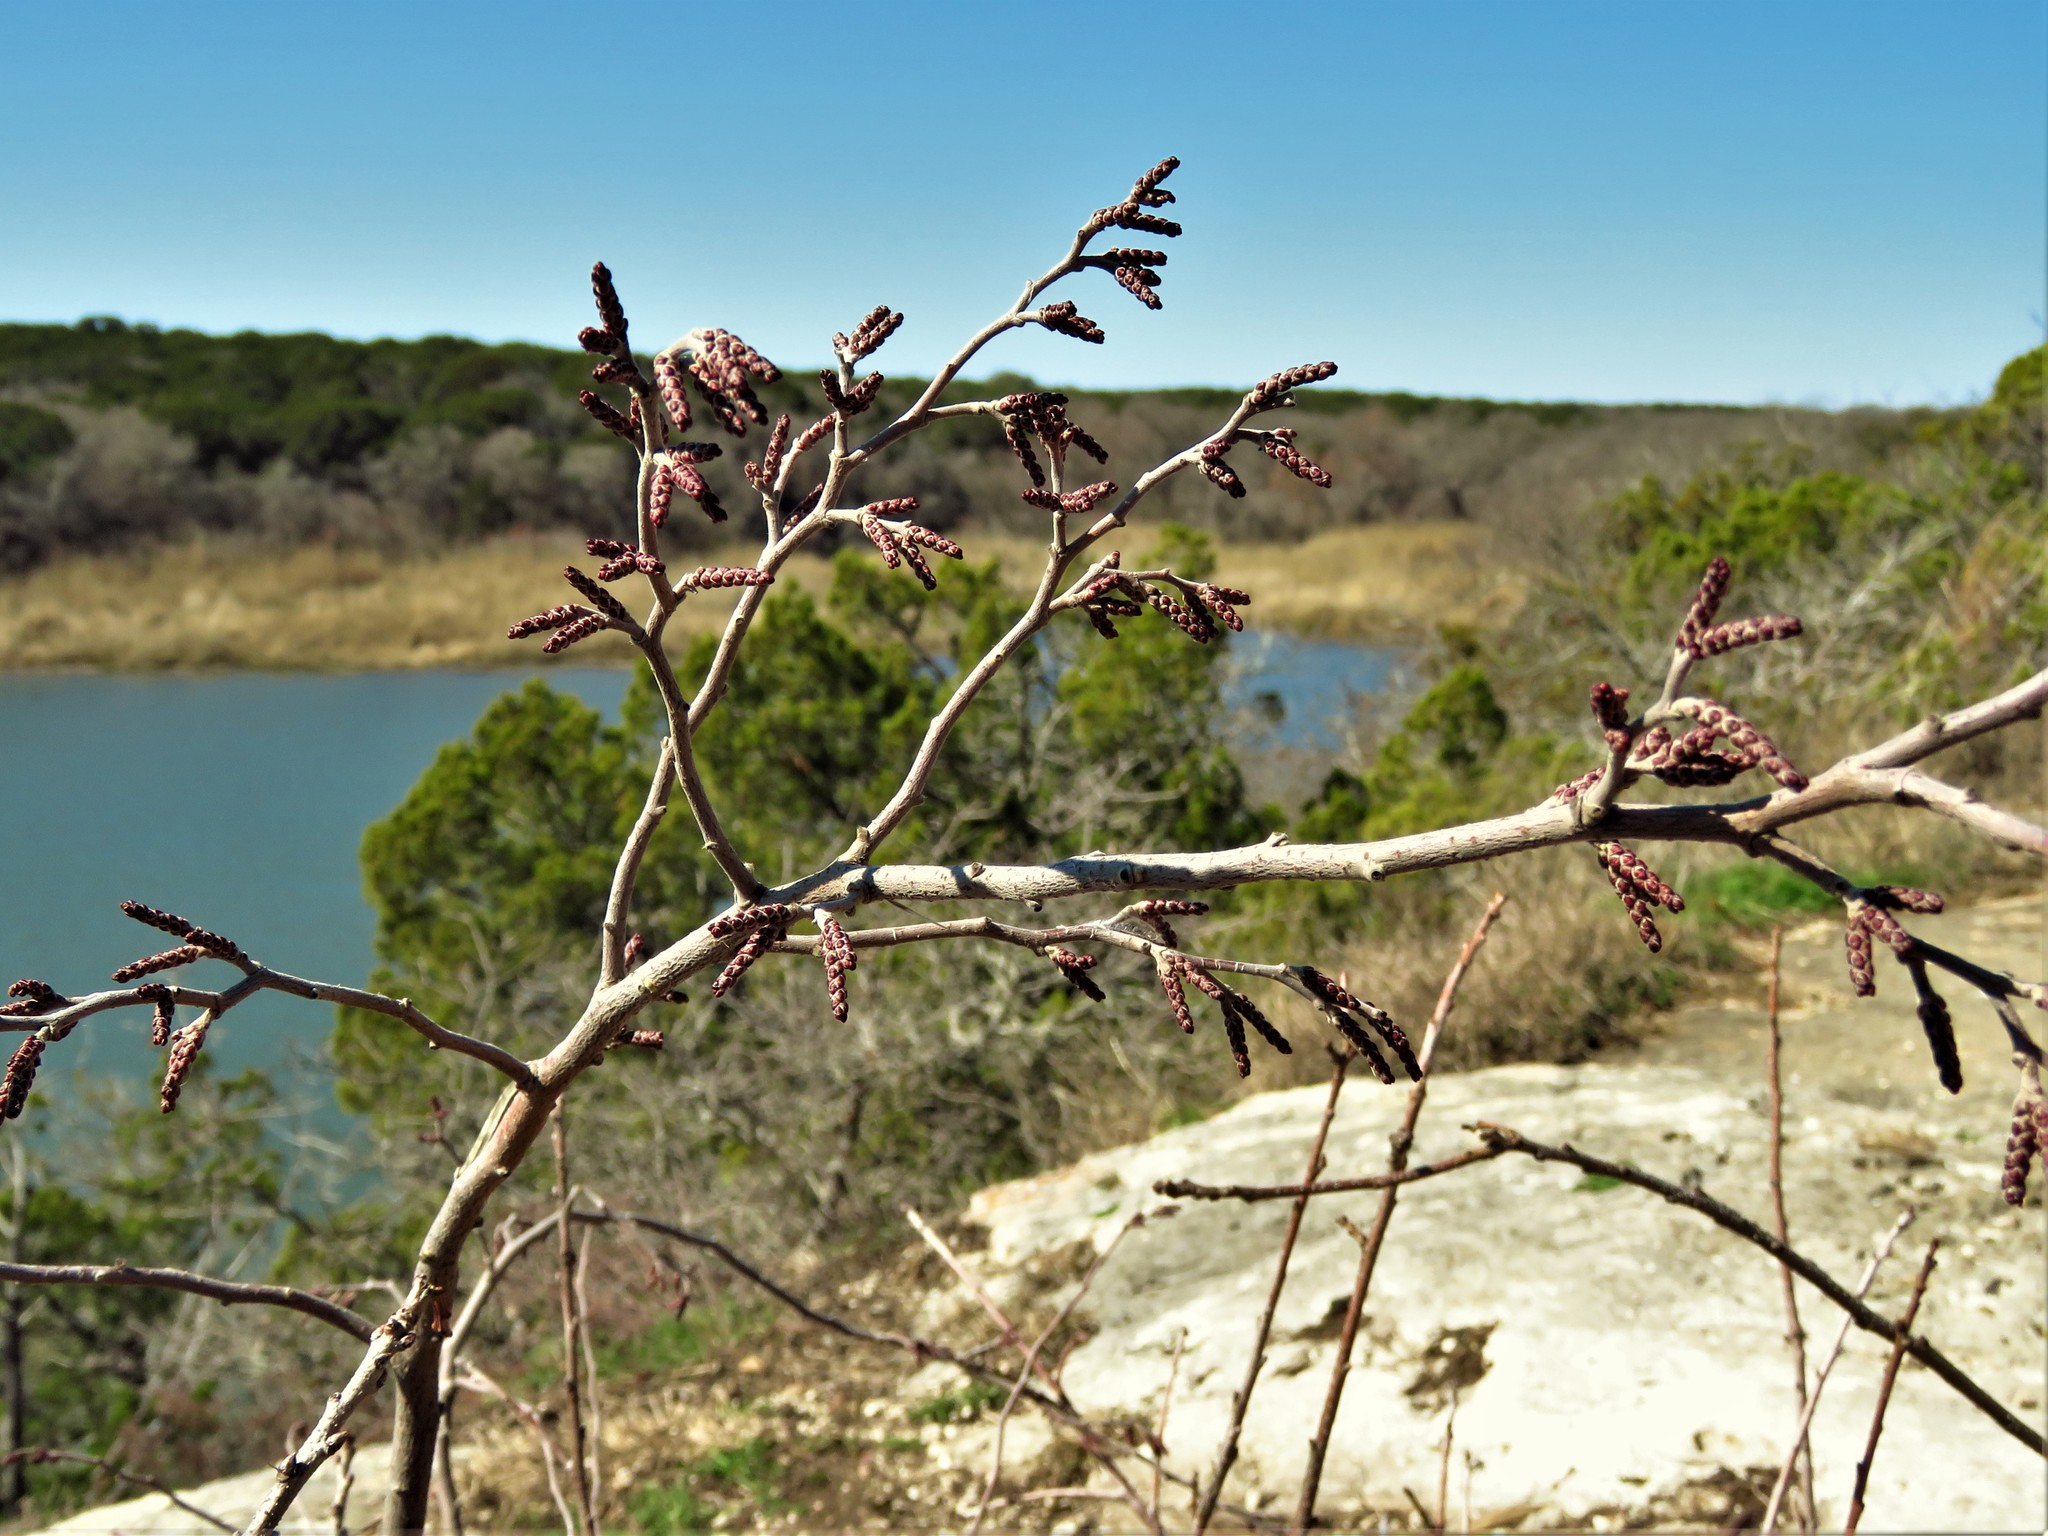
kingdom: Plantae
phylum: Tracheophyta
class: Magnoliopsida
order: Sapindales
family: Anacardiaceae
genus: Rhus
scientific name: Rhus aromatica
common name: Aromatic sumac
